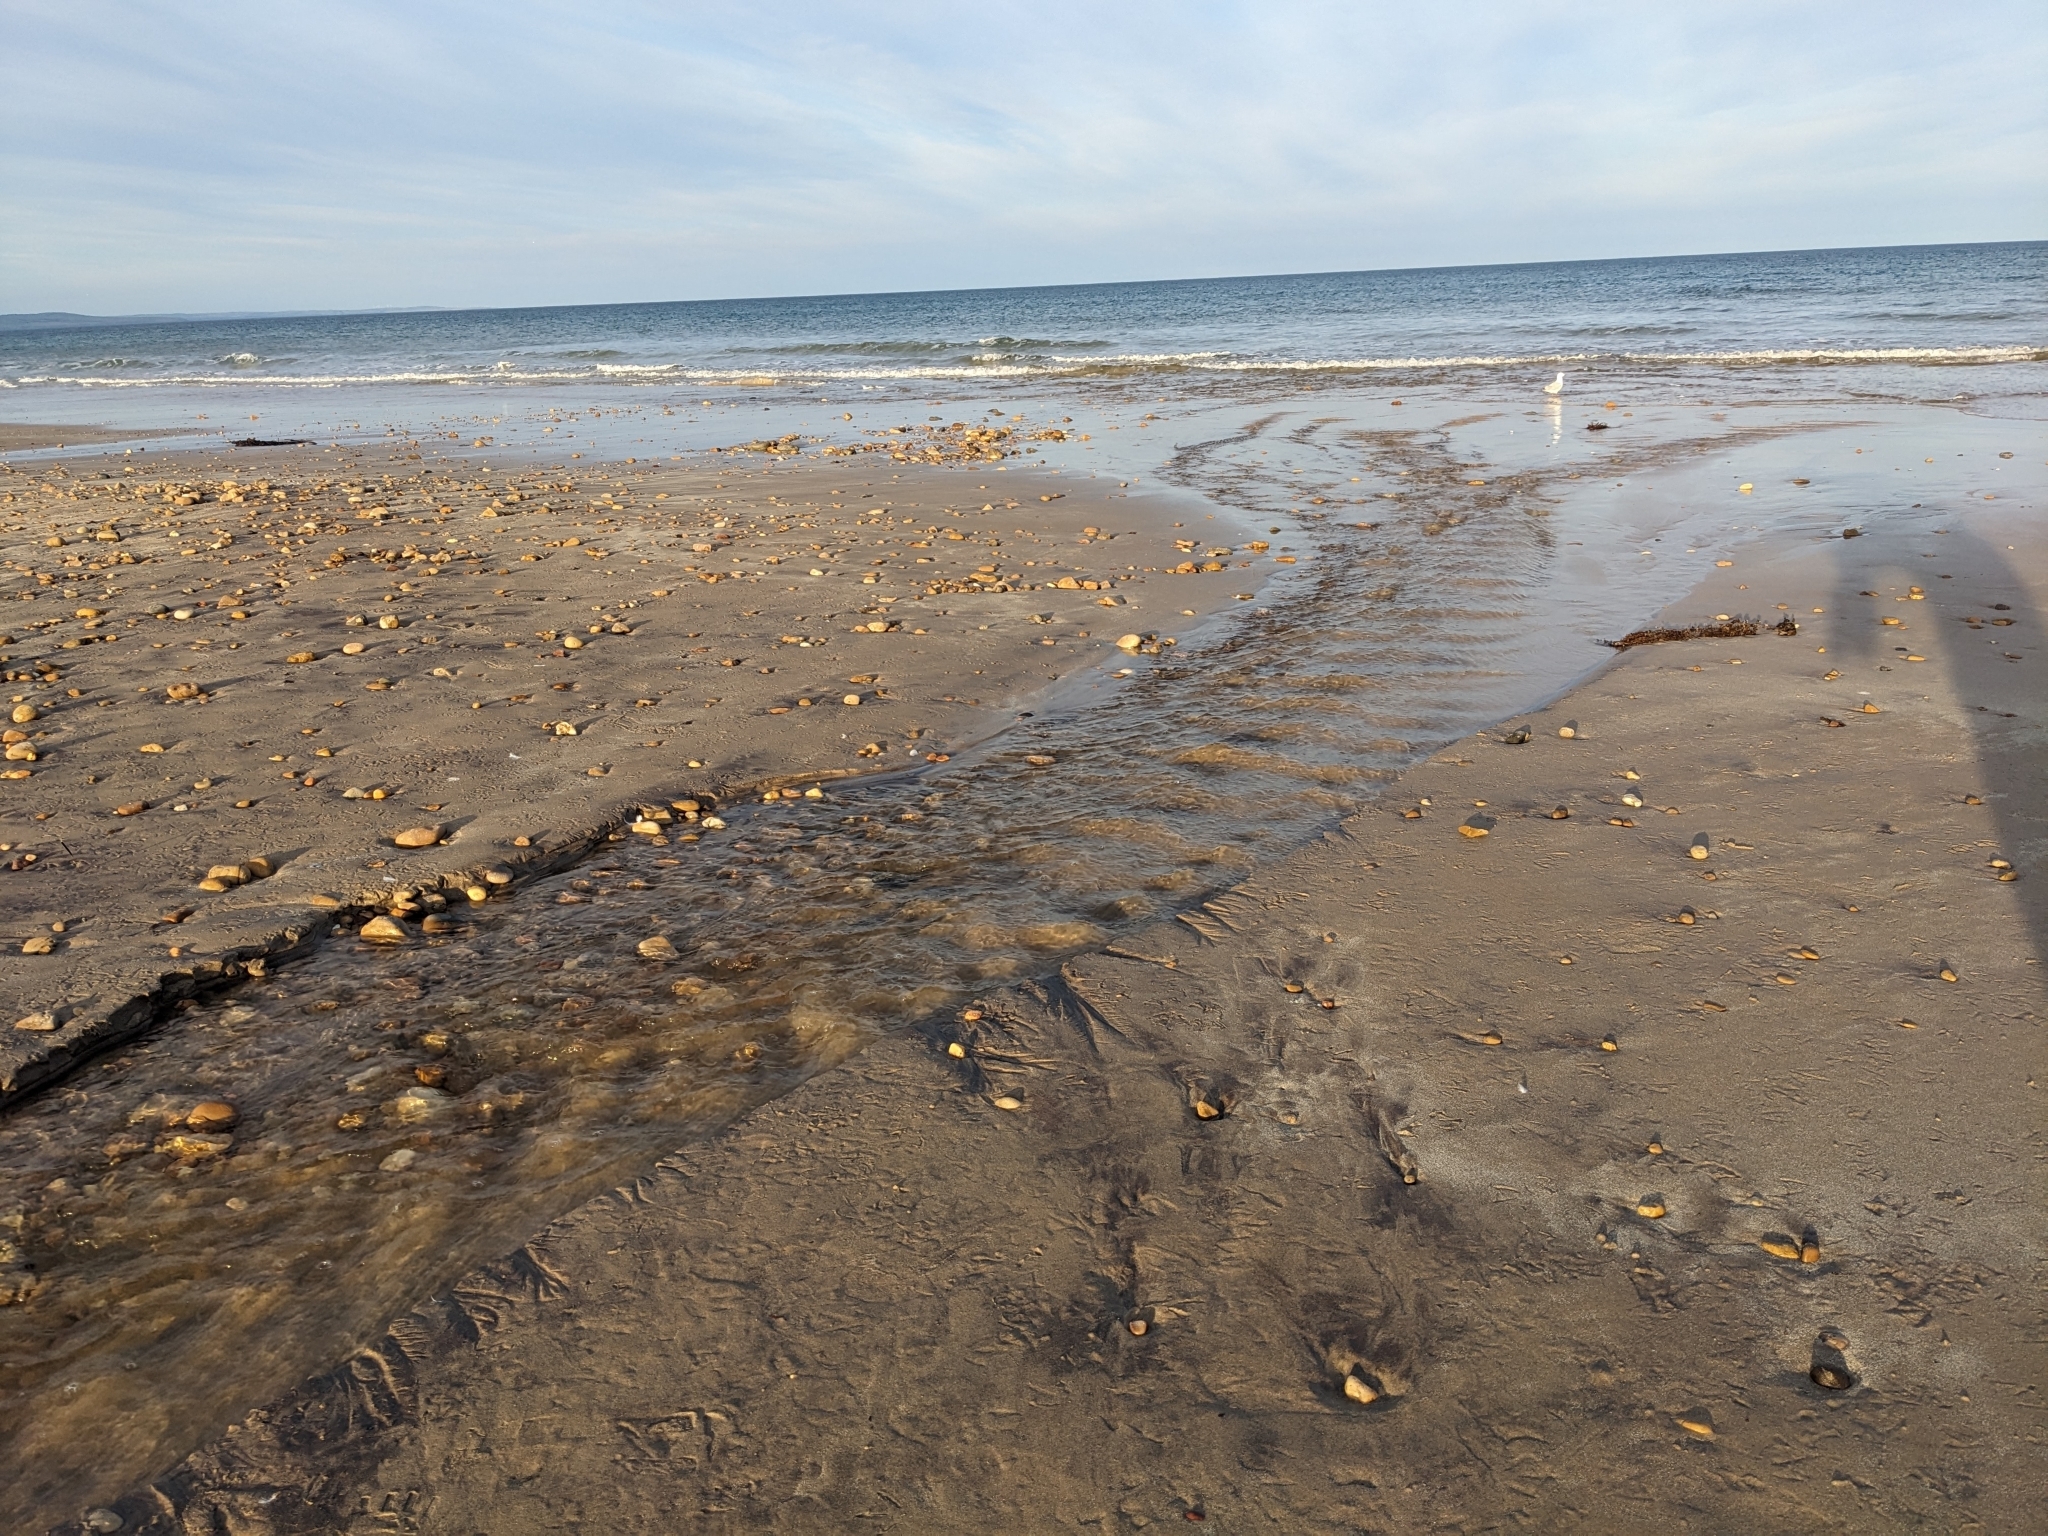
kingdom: Animalia
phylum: Chordata
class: Aves
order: Charadriiformes
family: Laridae
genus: Chroicocephalus
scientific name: Chroicocephalus novaehollandiae
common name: Silver gull
